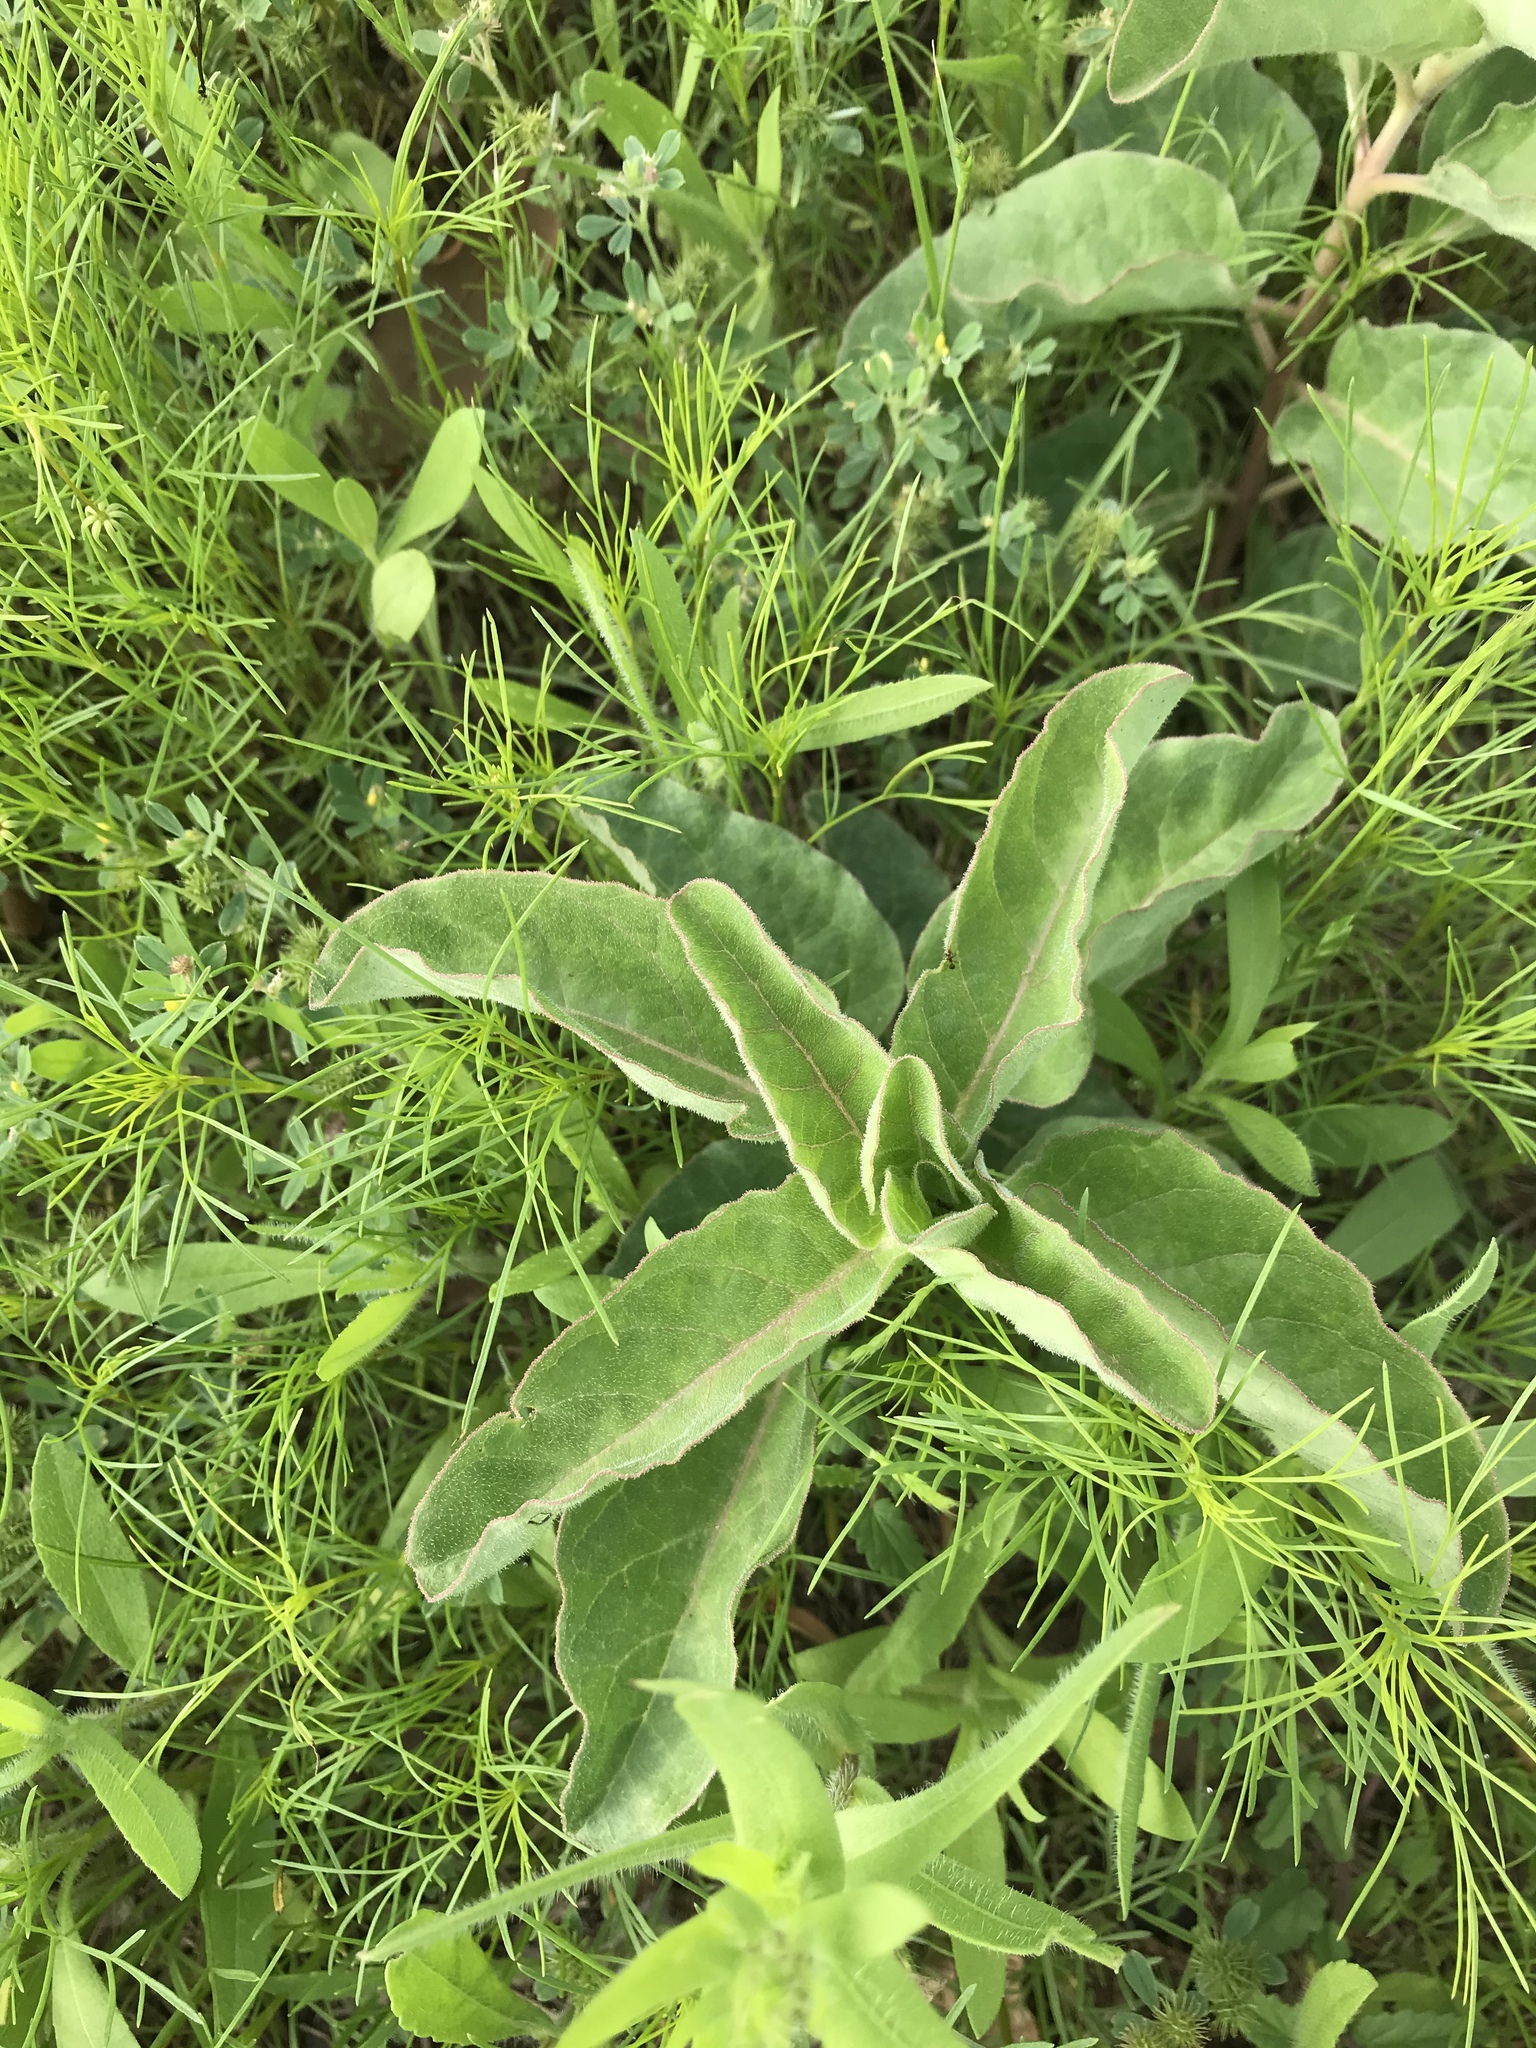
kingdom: Plantae
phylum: Tracheophyta
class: Magnoliopsida
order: Gentianales
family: Apocynaceae
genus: Asclepias
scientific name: Asclepias oenotheroides
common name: Zizotes milkweed
